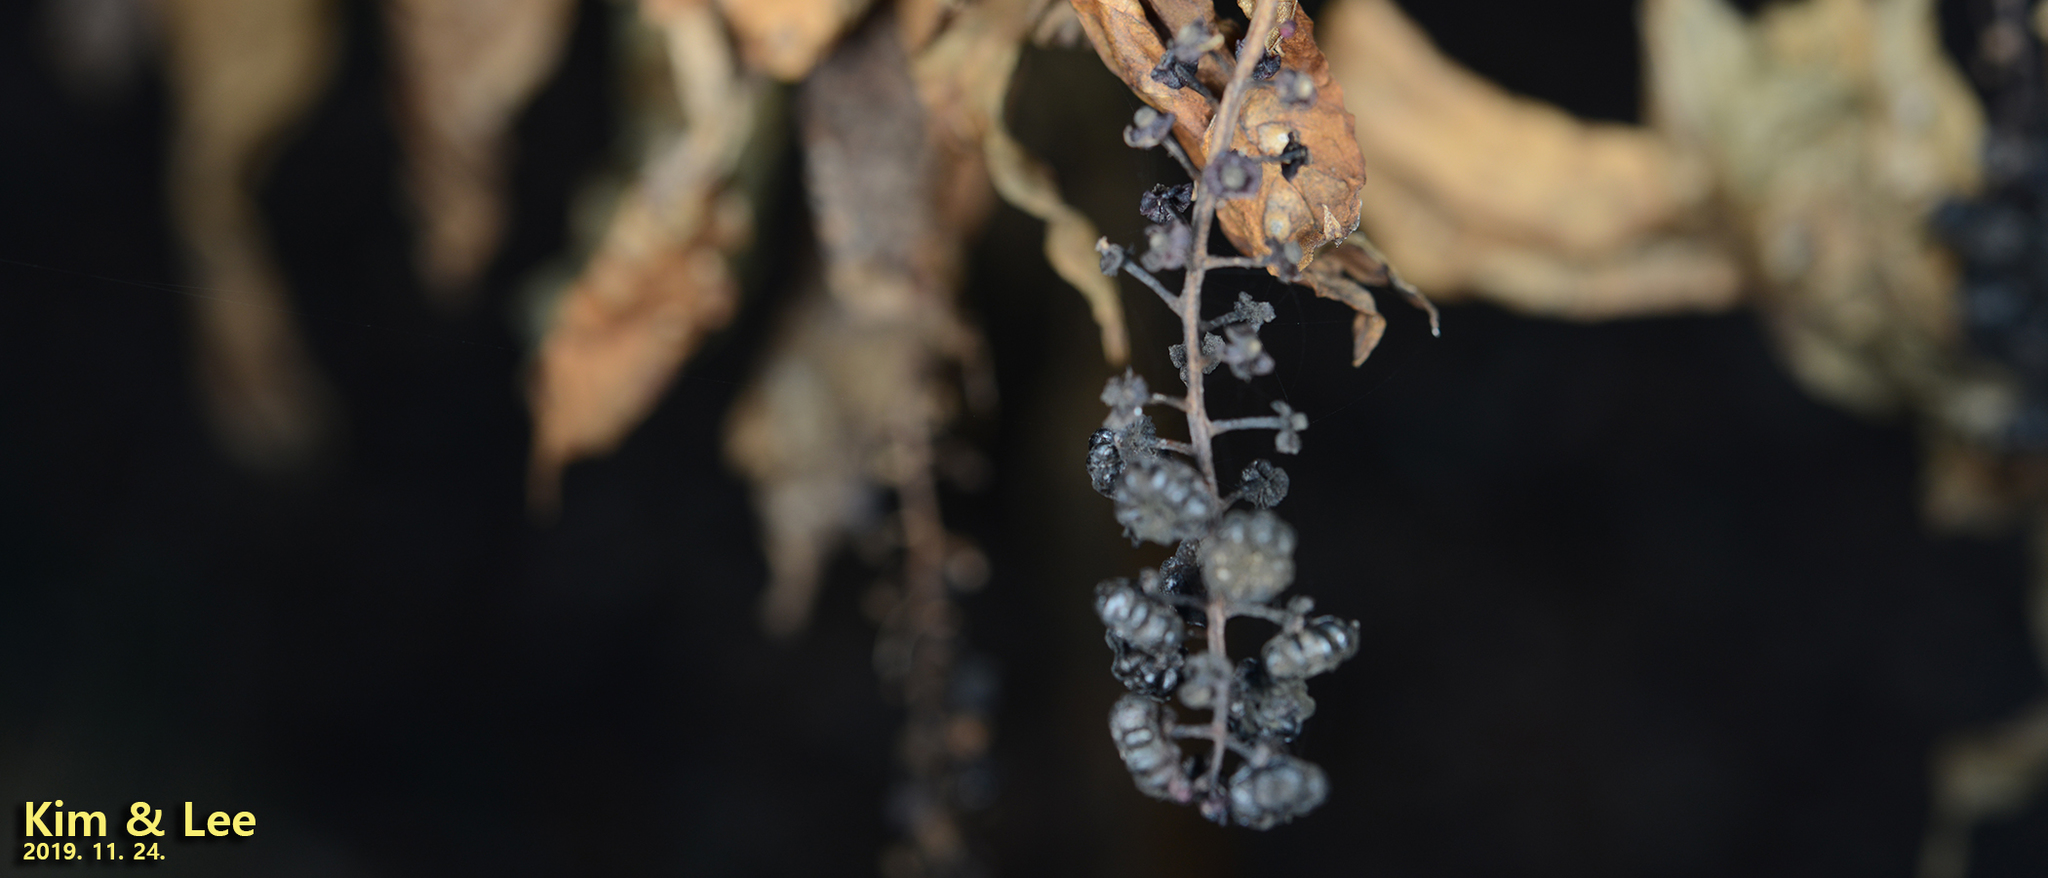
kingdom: Plantae
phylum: Tracheophyta
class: Magnoliopsida
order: Caryophyllales
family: Phytolaccaceae
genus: Phytolacca
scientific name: Phytolacca americana
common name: American pokeweed
